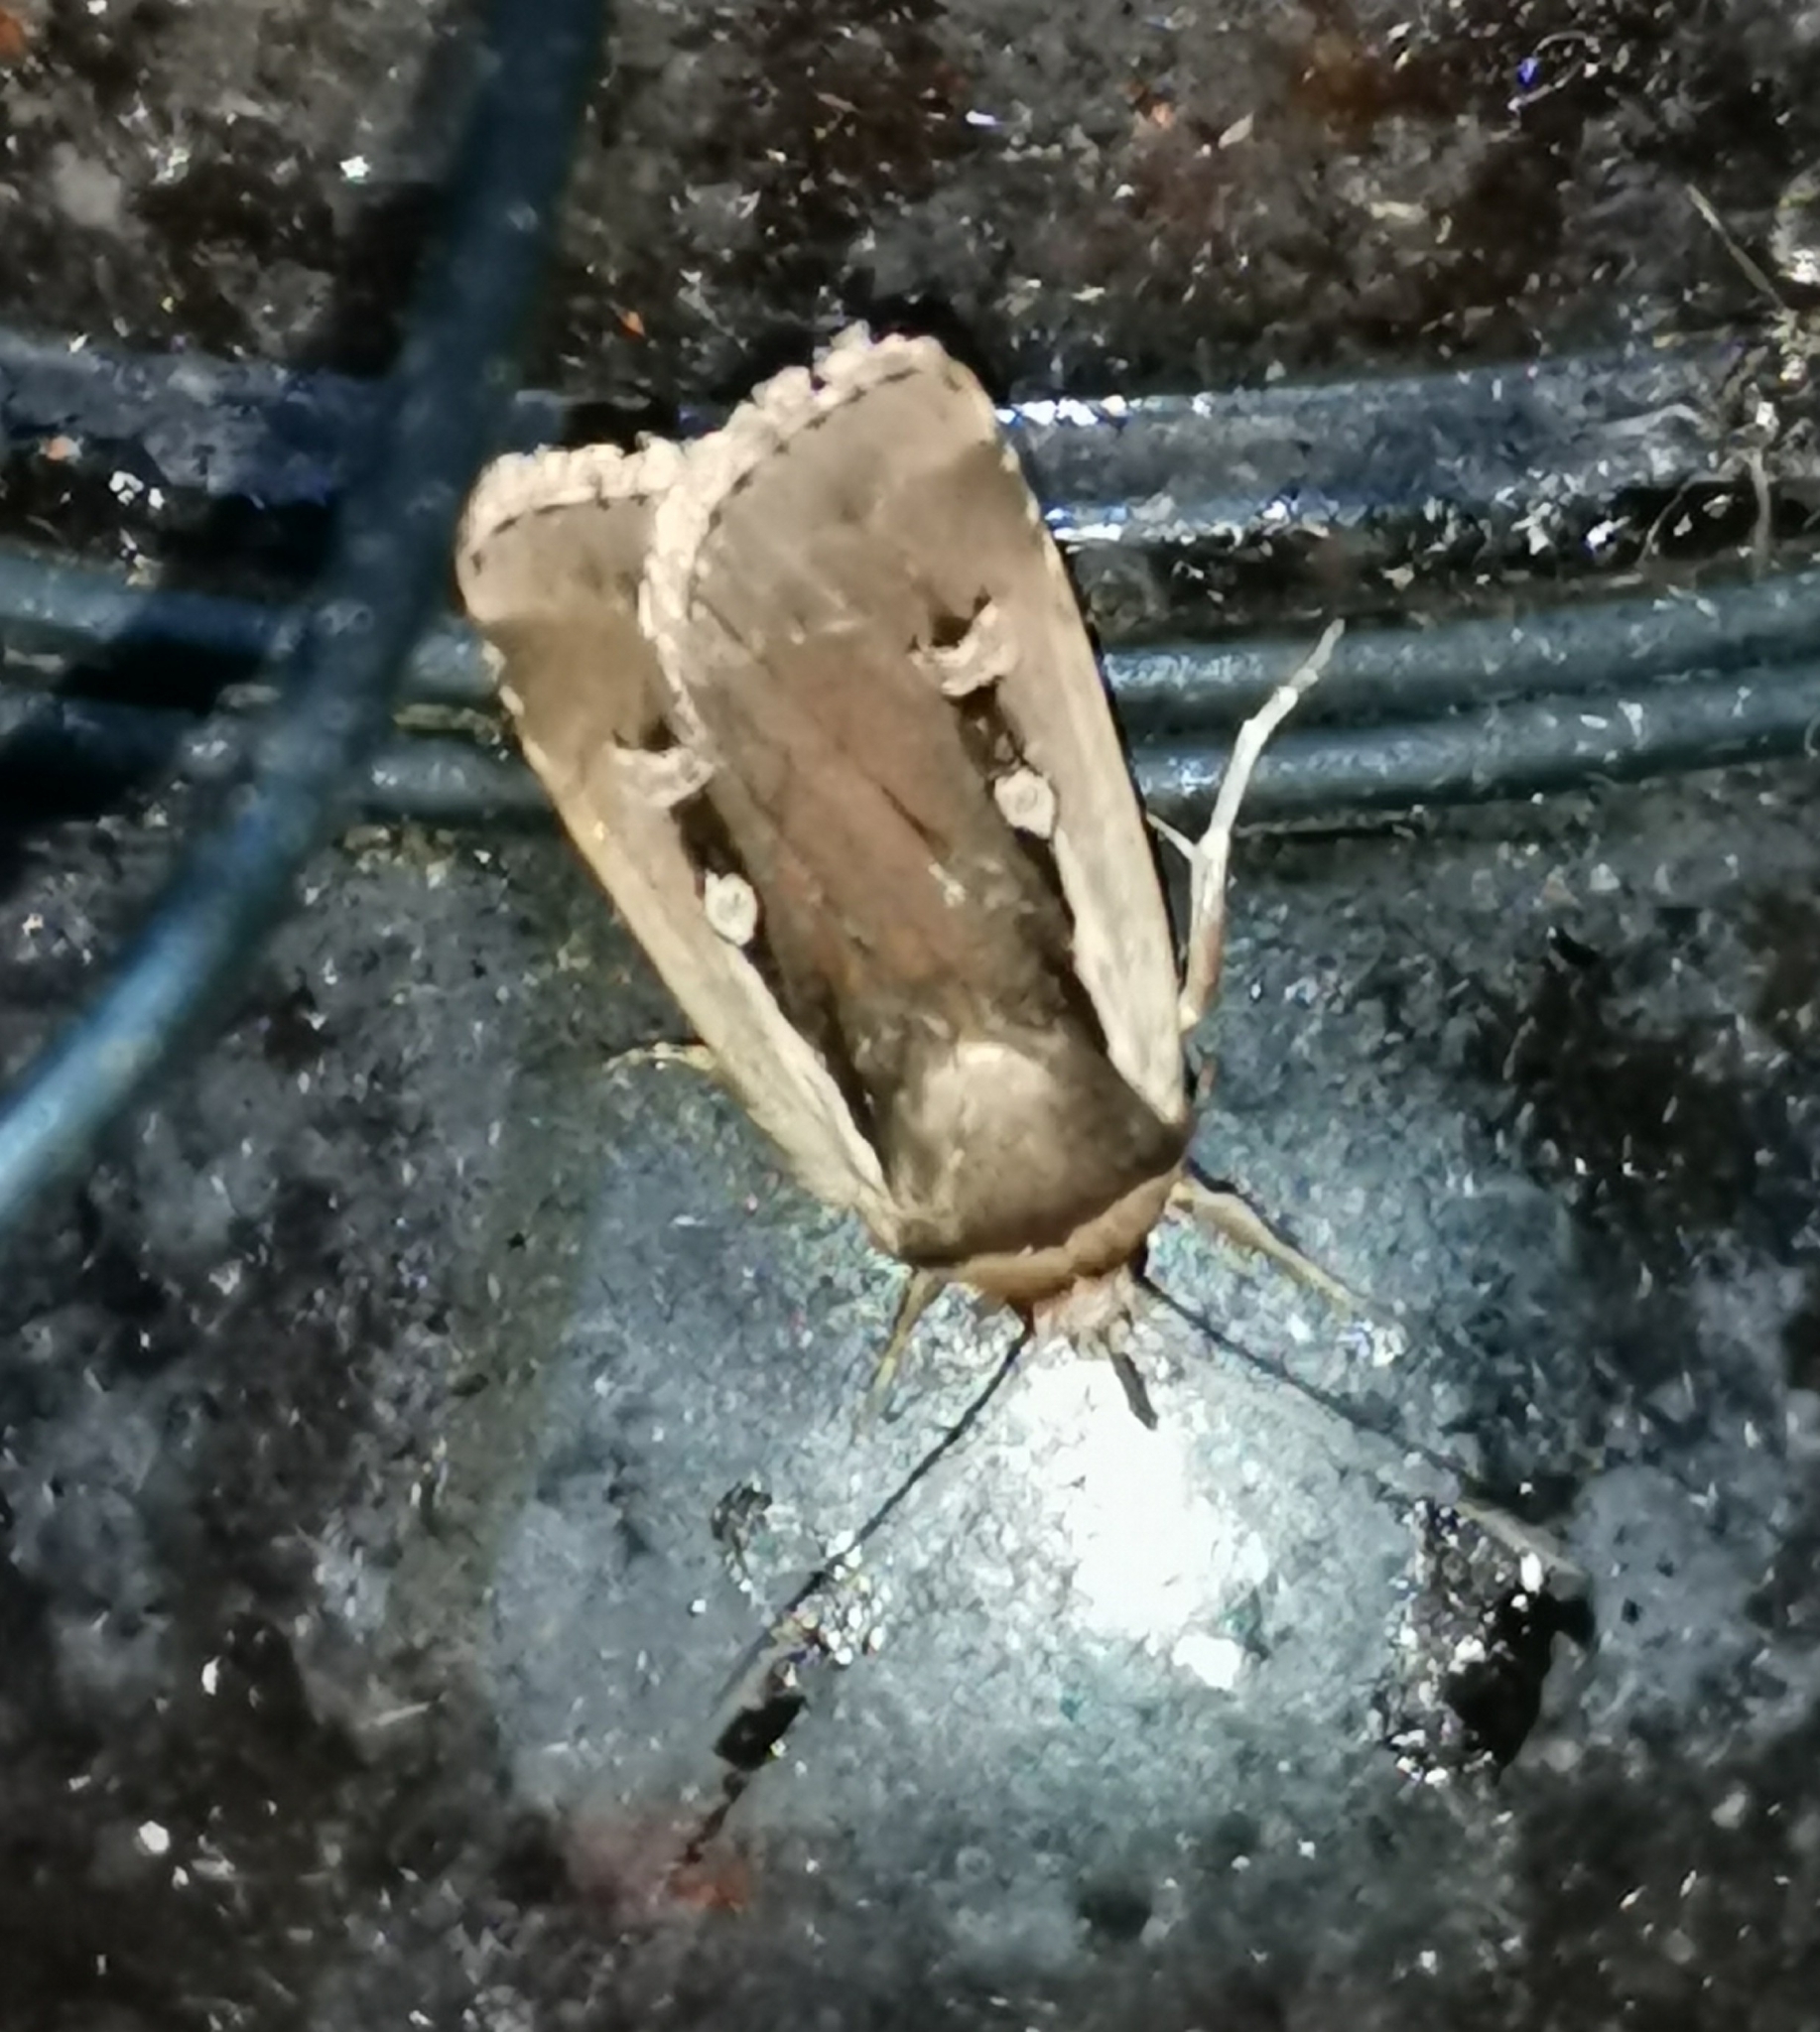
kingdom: Animalia
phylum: Arthropoda
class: Insecta
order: Lepidoptera
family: Noctuidae
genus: Ochropleura
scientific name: Ochropleura plecta
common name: Flame shoulder
